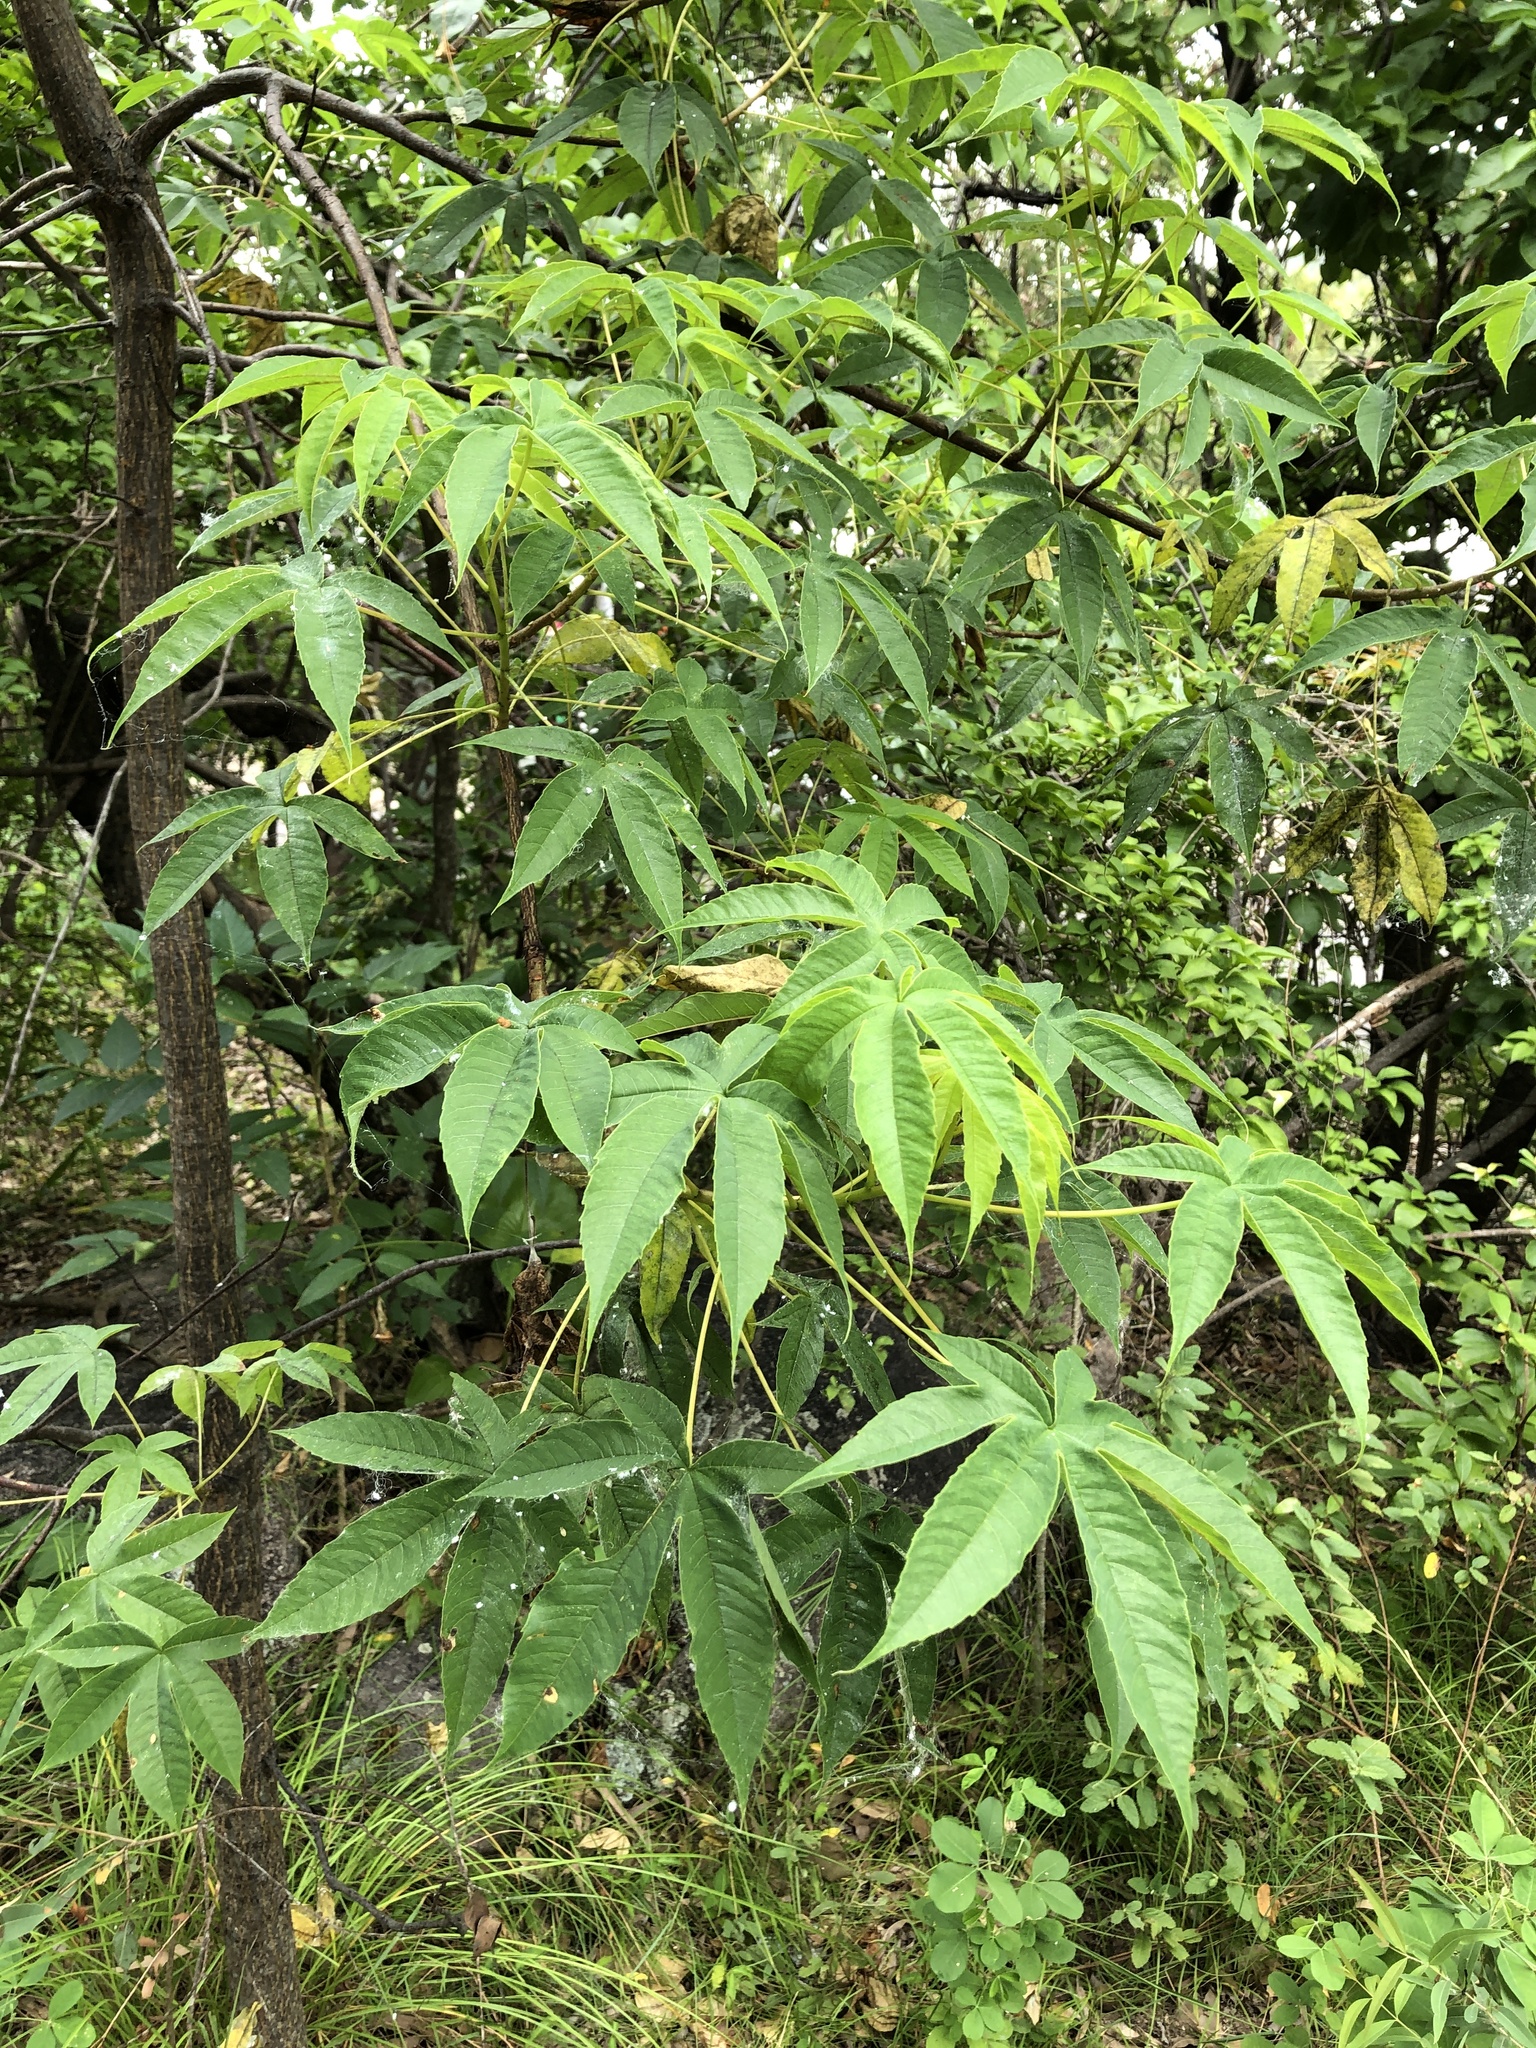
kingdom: Plantae
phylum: Tracheophyta
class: Magnoliopsida
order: Malvales
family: Cochlospermaceae
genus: Cochlospermum
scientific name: Cochlospermum gillivraei
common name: Cottontree
